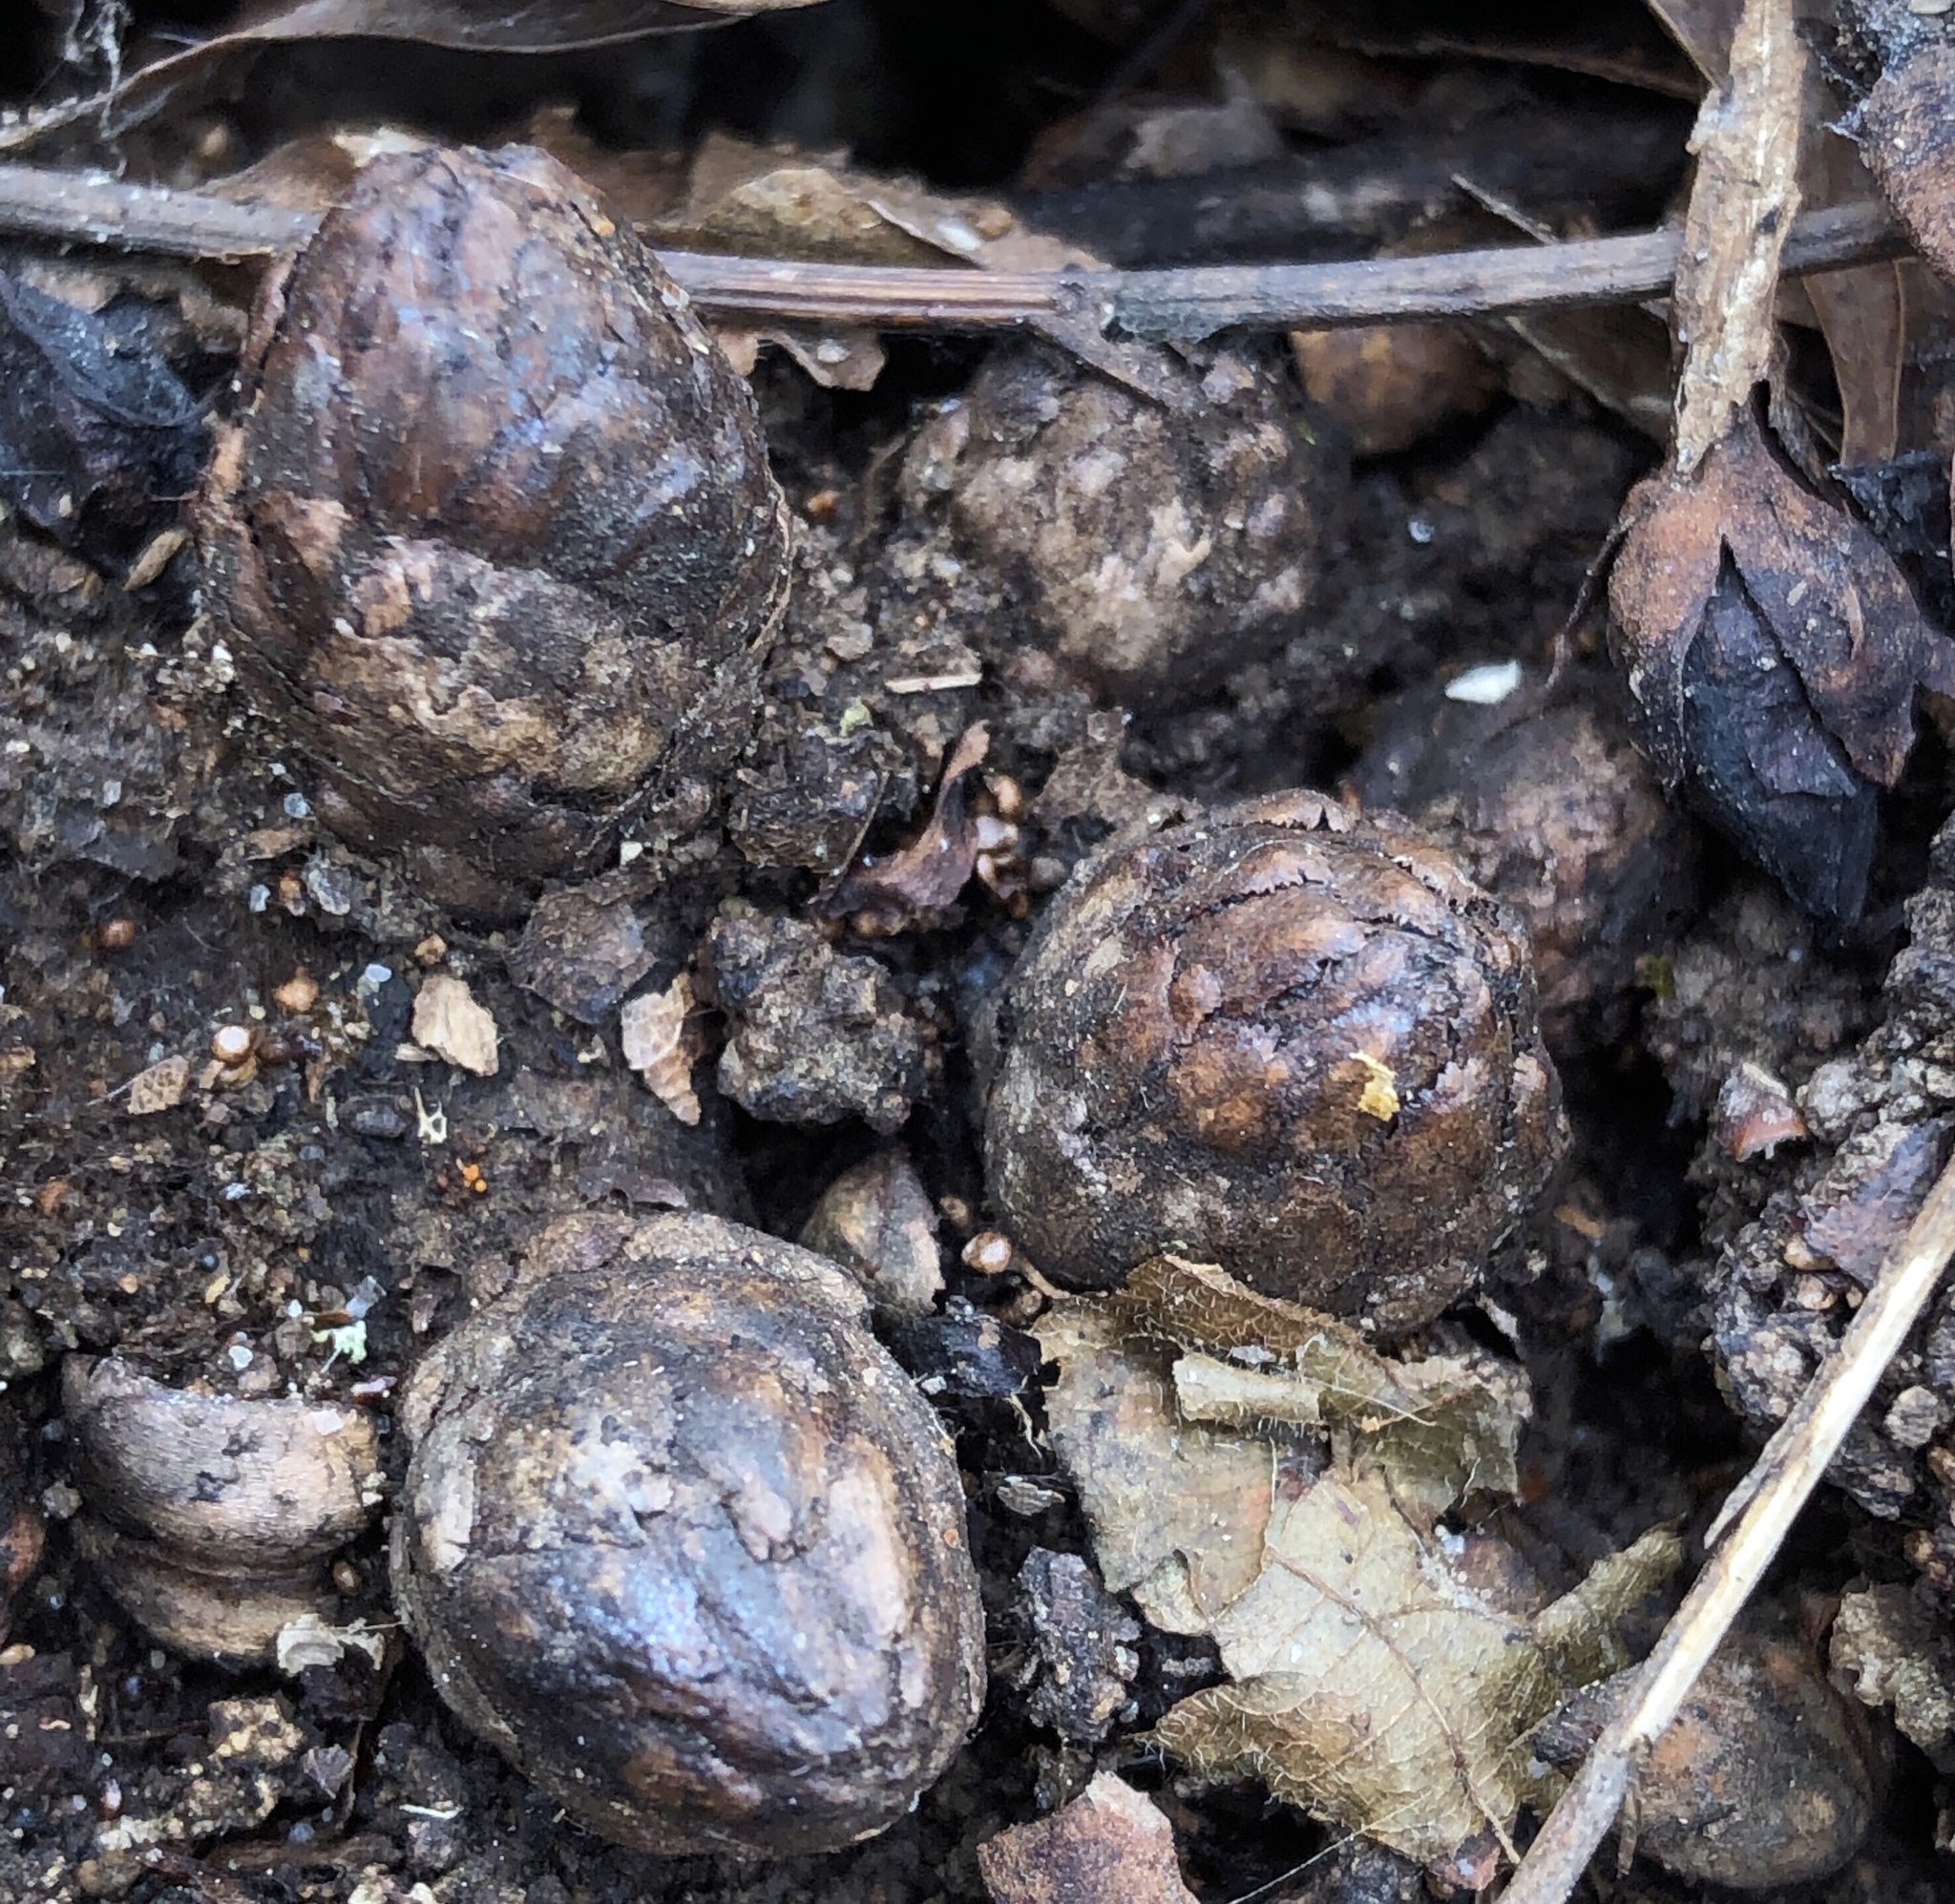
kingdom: Plantae
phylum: Tracheophyta
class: Magnoliopsida
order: Lamiales
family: Orobanchaceae
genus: Conopholis
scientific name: Conopholis americana
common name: American cancer-root
